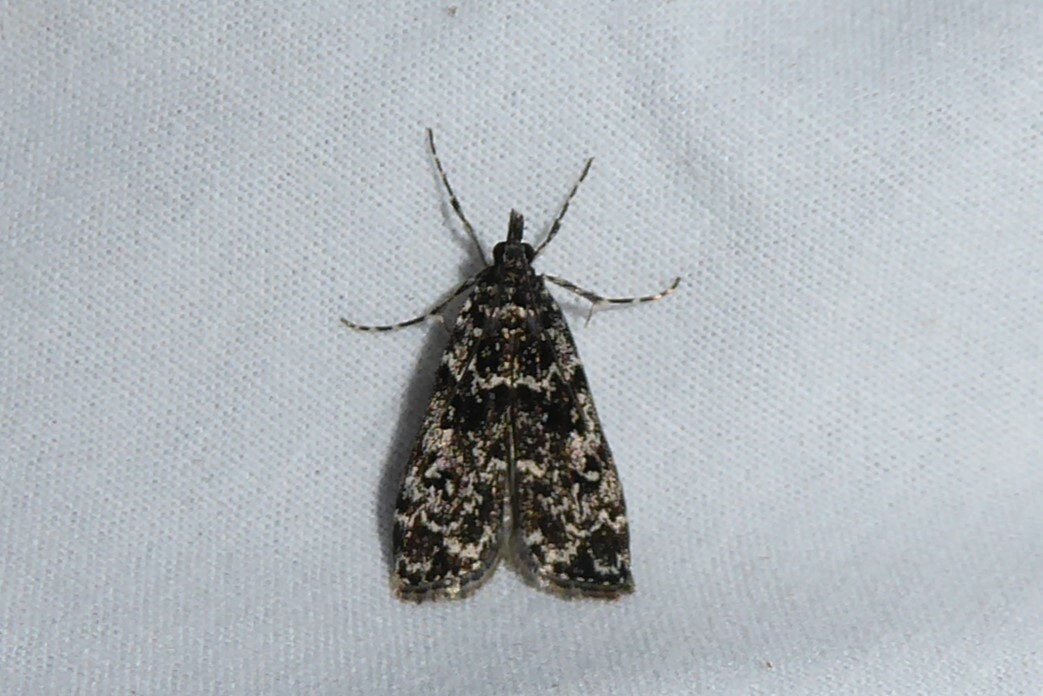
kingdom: Animalia
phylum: Arthropoda
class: Insecta
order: Lepidoptera
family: Crambidae
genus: Eudonia
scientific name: Eudonia philerga
